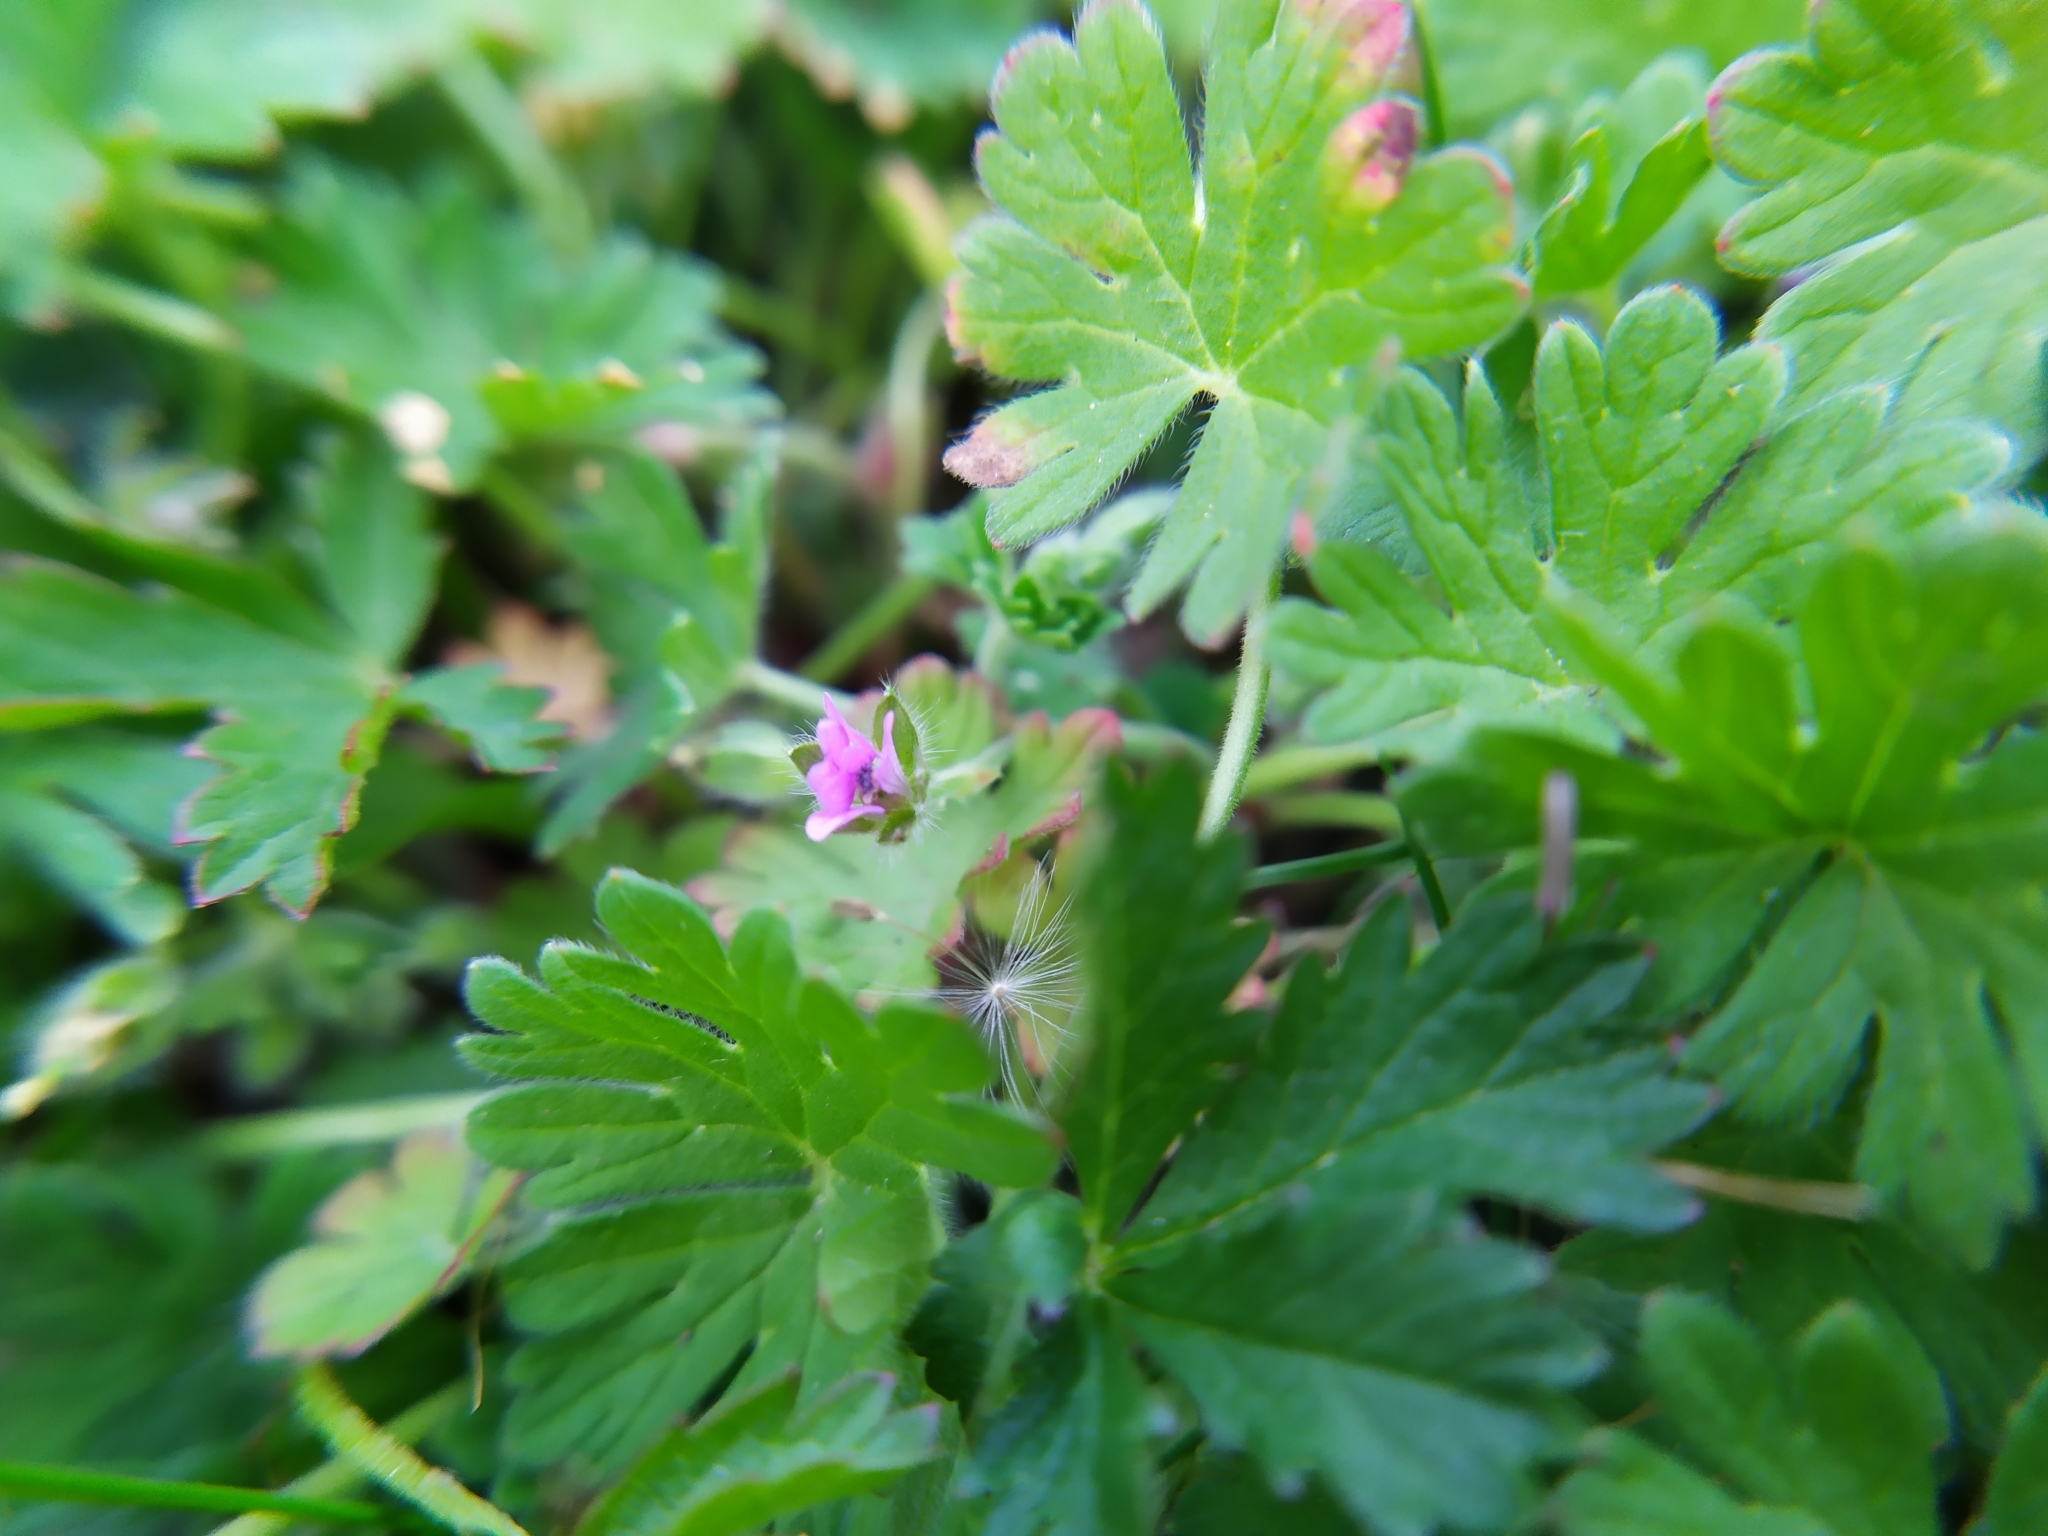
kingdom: Plantae
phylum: Tracheophyta
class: Magnoliopsida
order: Geraniales
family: Geraniaceae
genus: Geranium
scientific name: Geranium pusillum
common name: Small geranium
